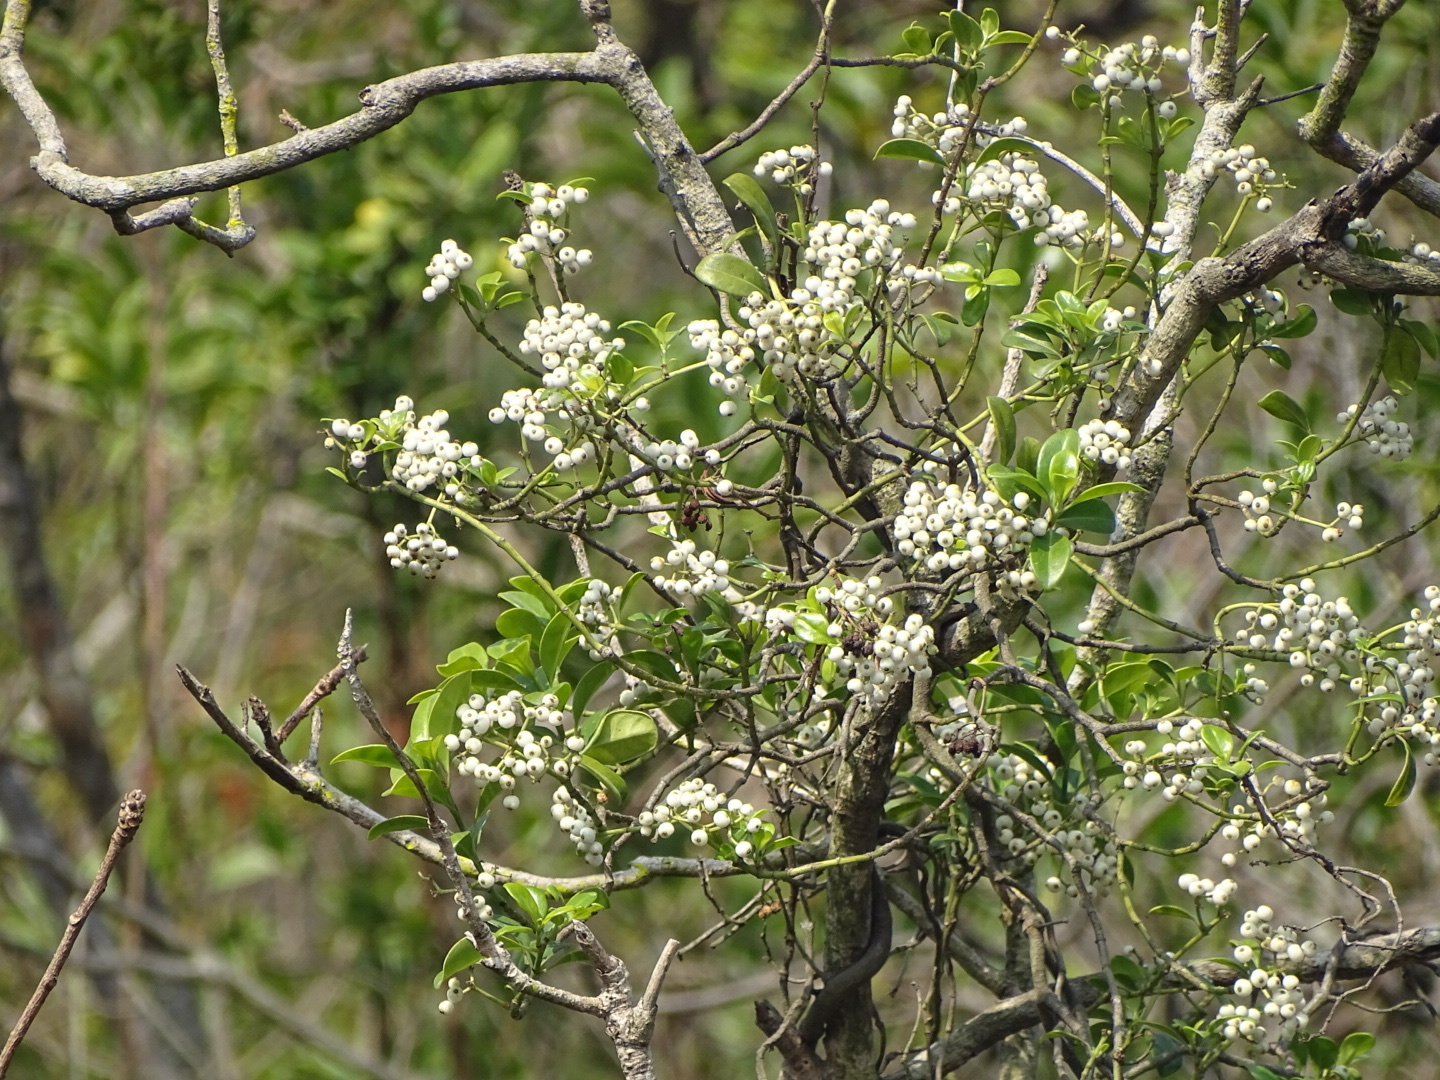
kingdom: Plantae
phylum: Tracheophyta
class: Magnoliopsida
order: Gentianales
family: Rubiaceae
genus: Psychotria
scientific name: Psychotria serpens
